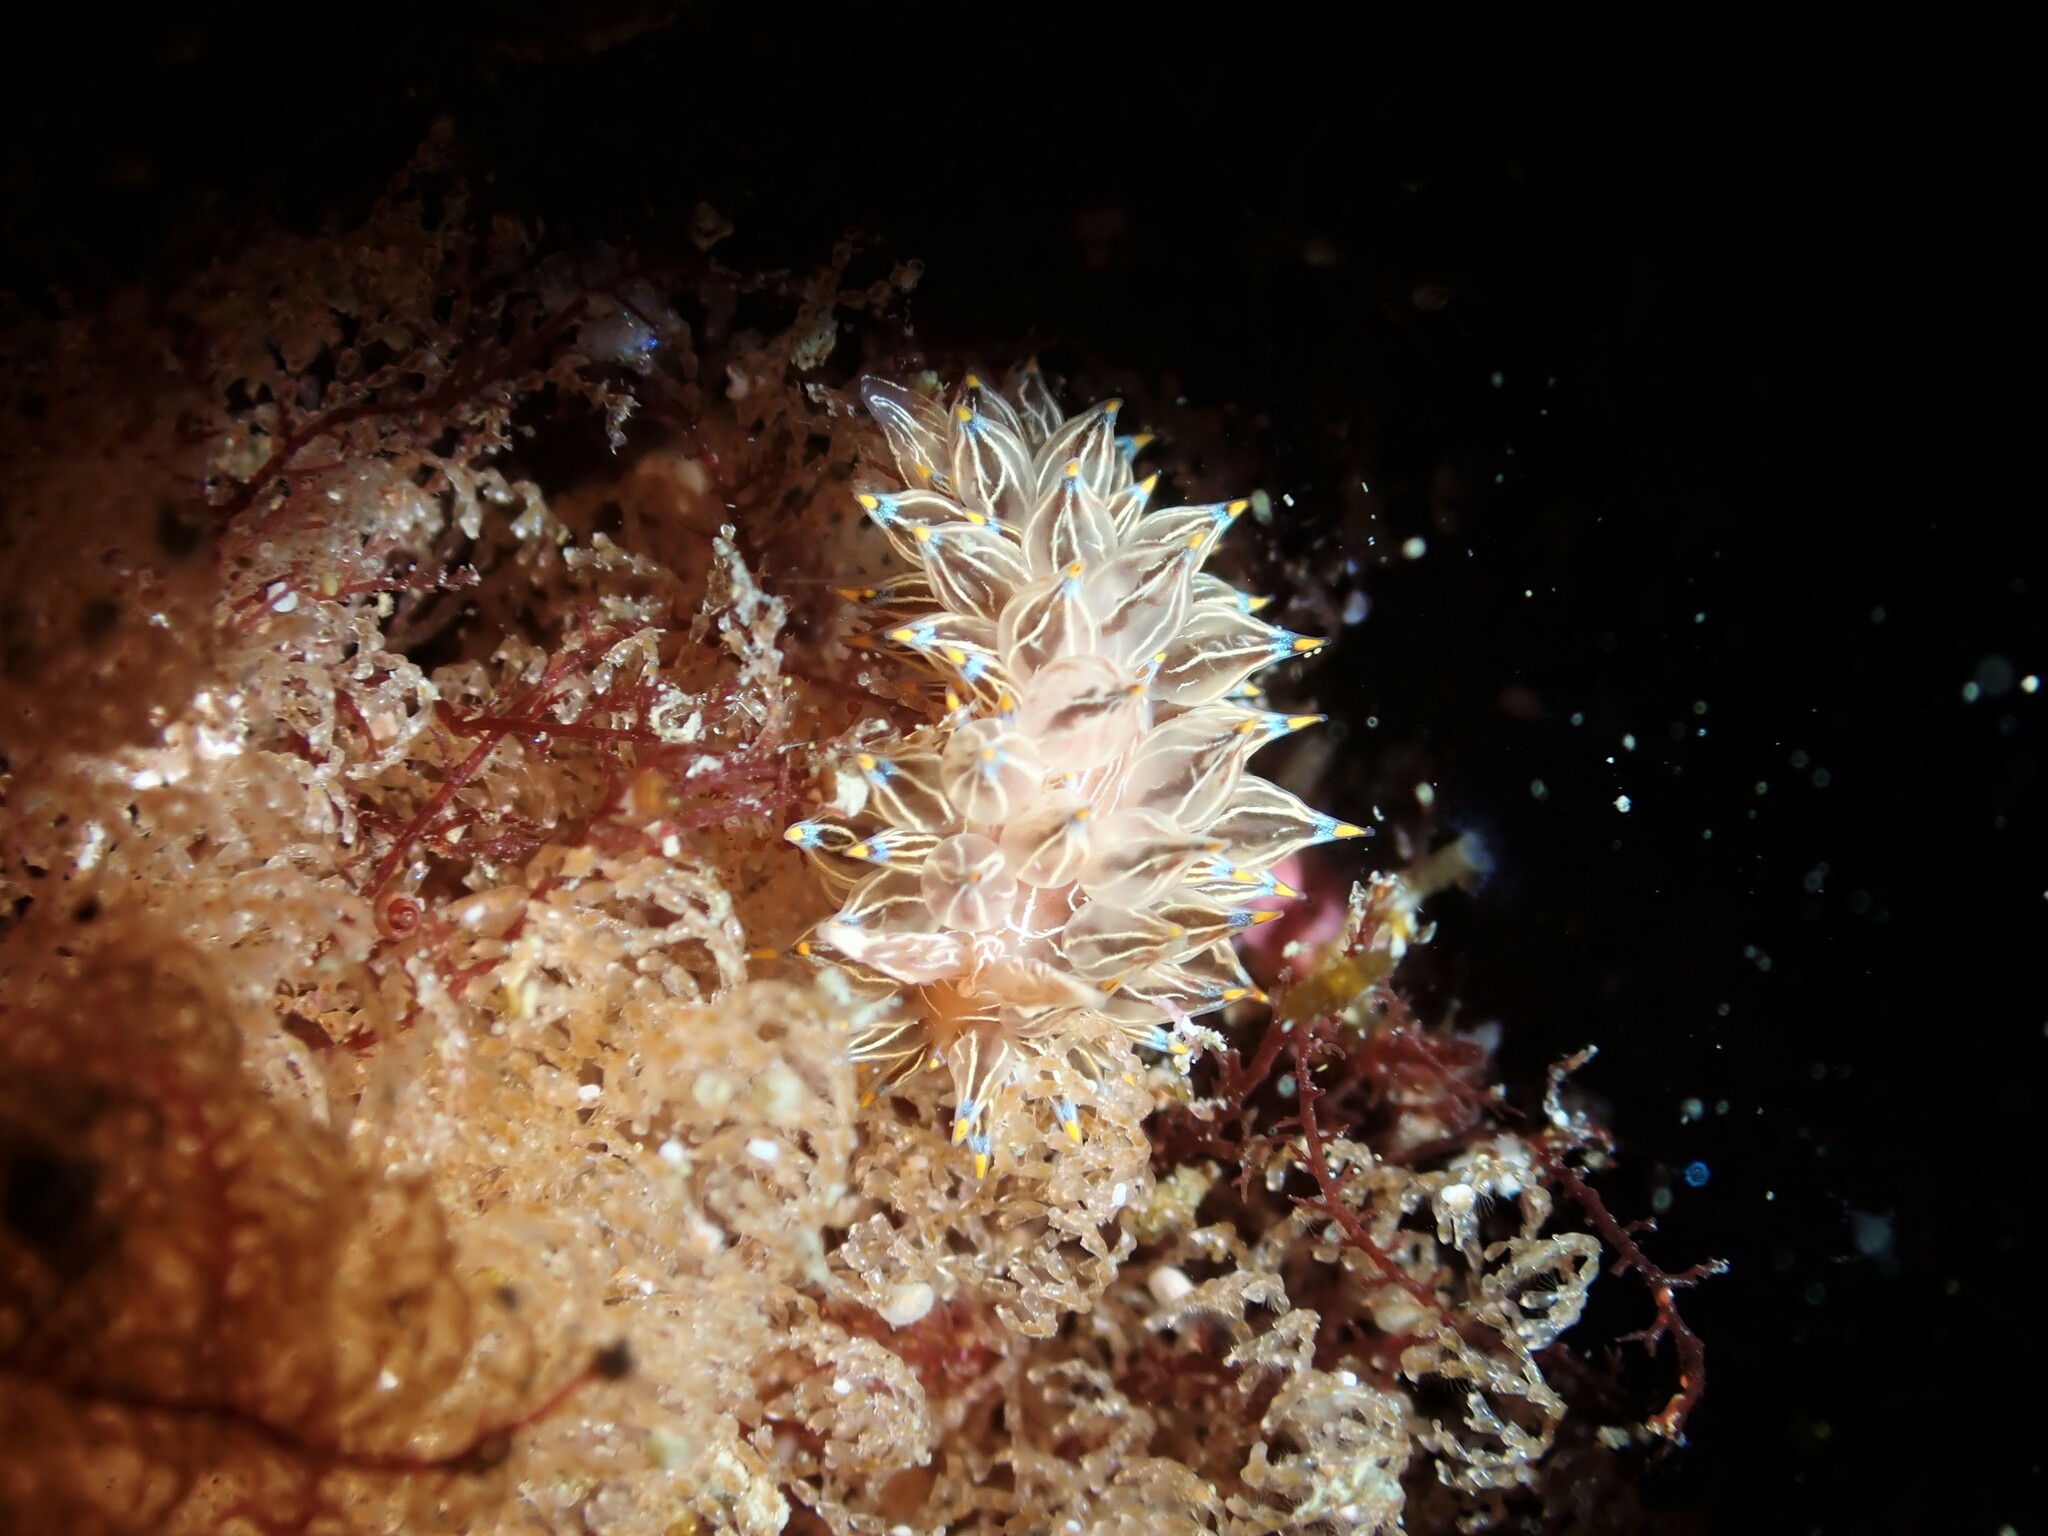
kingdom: Animalia
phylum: Mollusca
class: Gastropoda
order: Nudibranchia
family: Janolidae
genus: Janolus
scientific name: Janolus eximius
